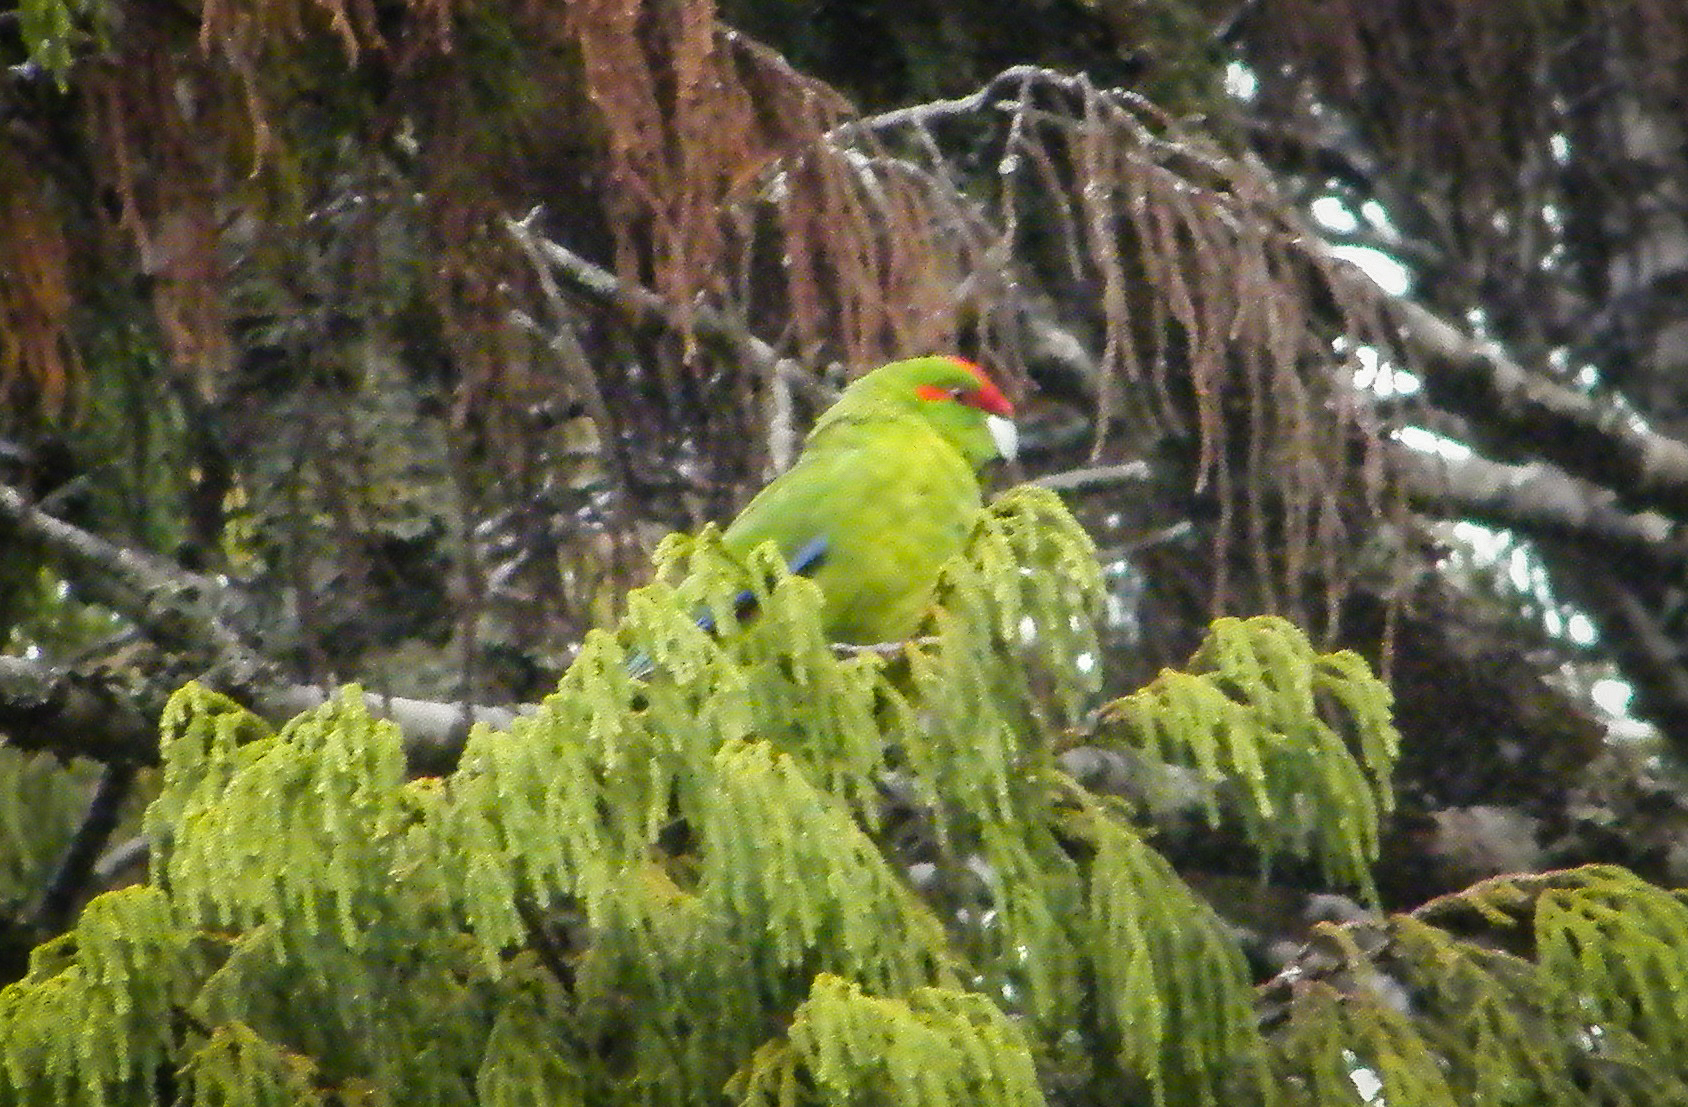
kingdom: Animalia
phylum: Chordata
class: Aves
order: Psittaciformes
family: Psittacidae
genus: Cyanoramphus
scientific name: Cyanoramphus novaezelandiae
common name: Red-fronted parakeet
